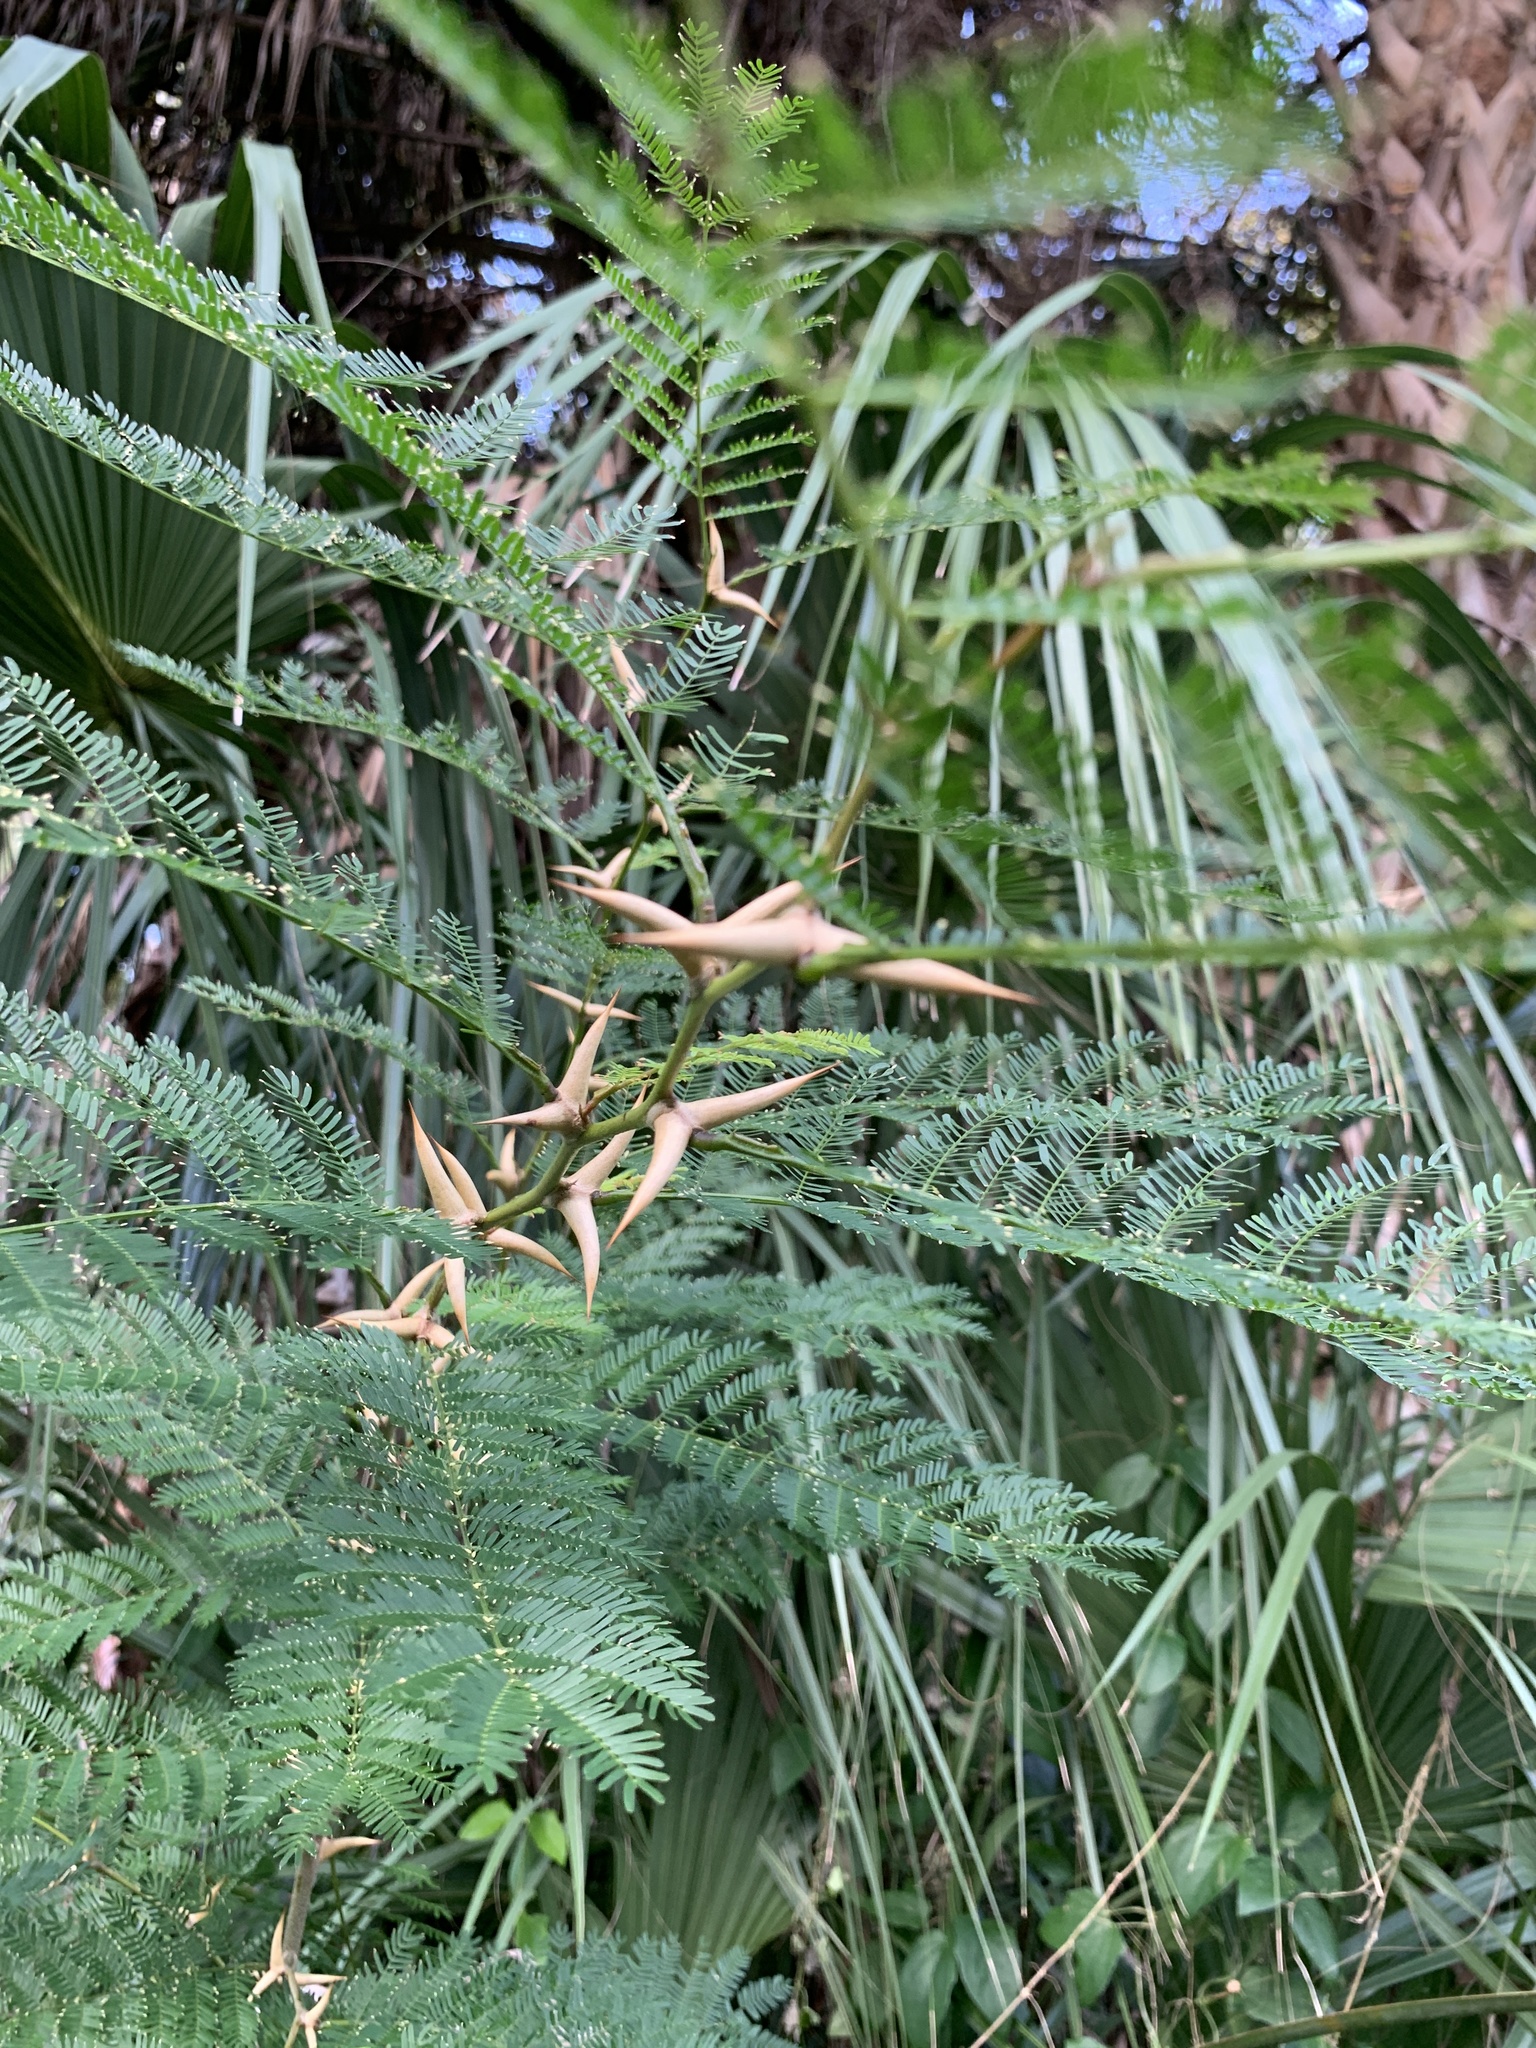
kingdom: Plantae
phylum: Tracheophyta
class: Magnoliopsida
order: Fabales
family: Fabaceae
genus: Vachellia
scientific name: Vachellia cornigera
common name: Bullhorn wattle
